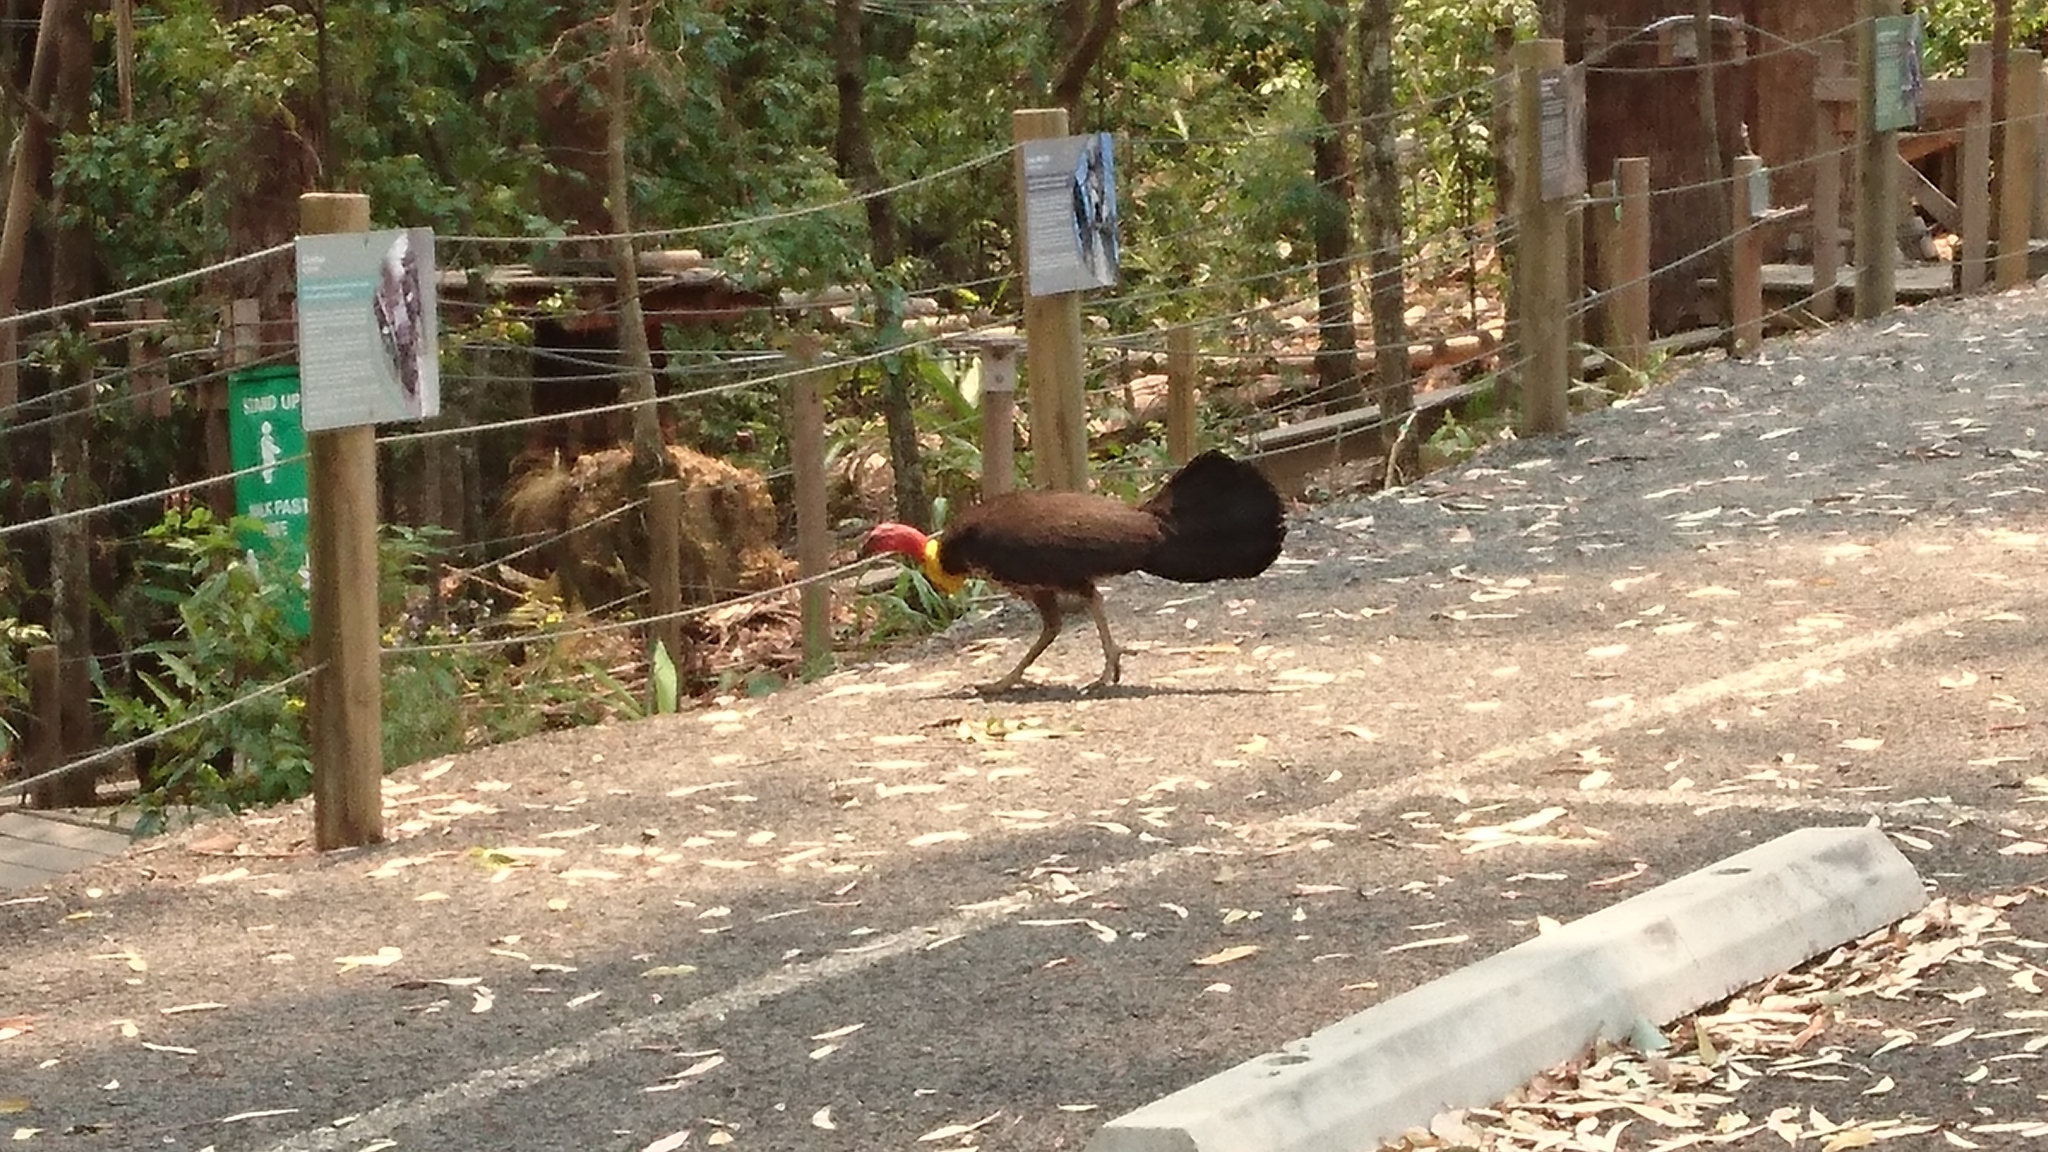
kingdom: Animalia
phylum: Chordata
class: Aves
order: Galliformes
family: Megapodiidae
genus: Alectura
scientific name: Alectura lathami
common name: Australian brushturkey
